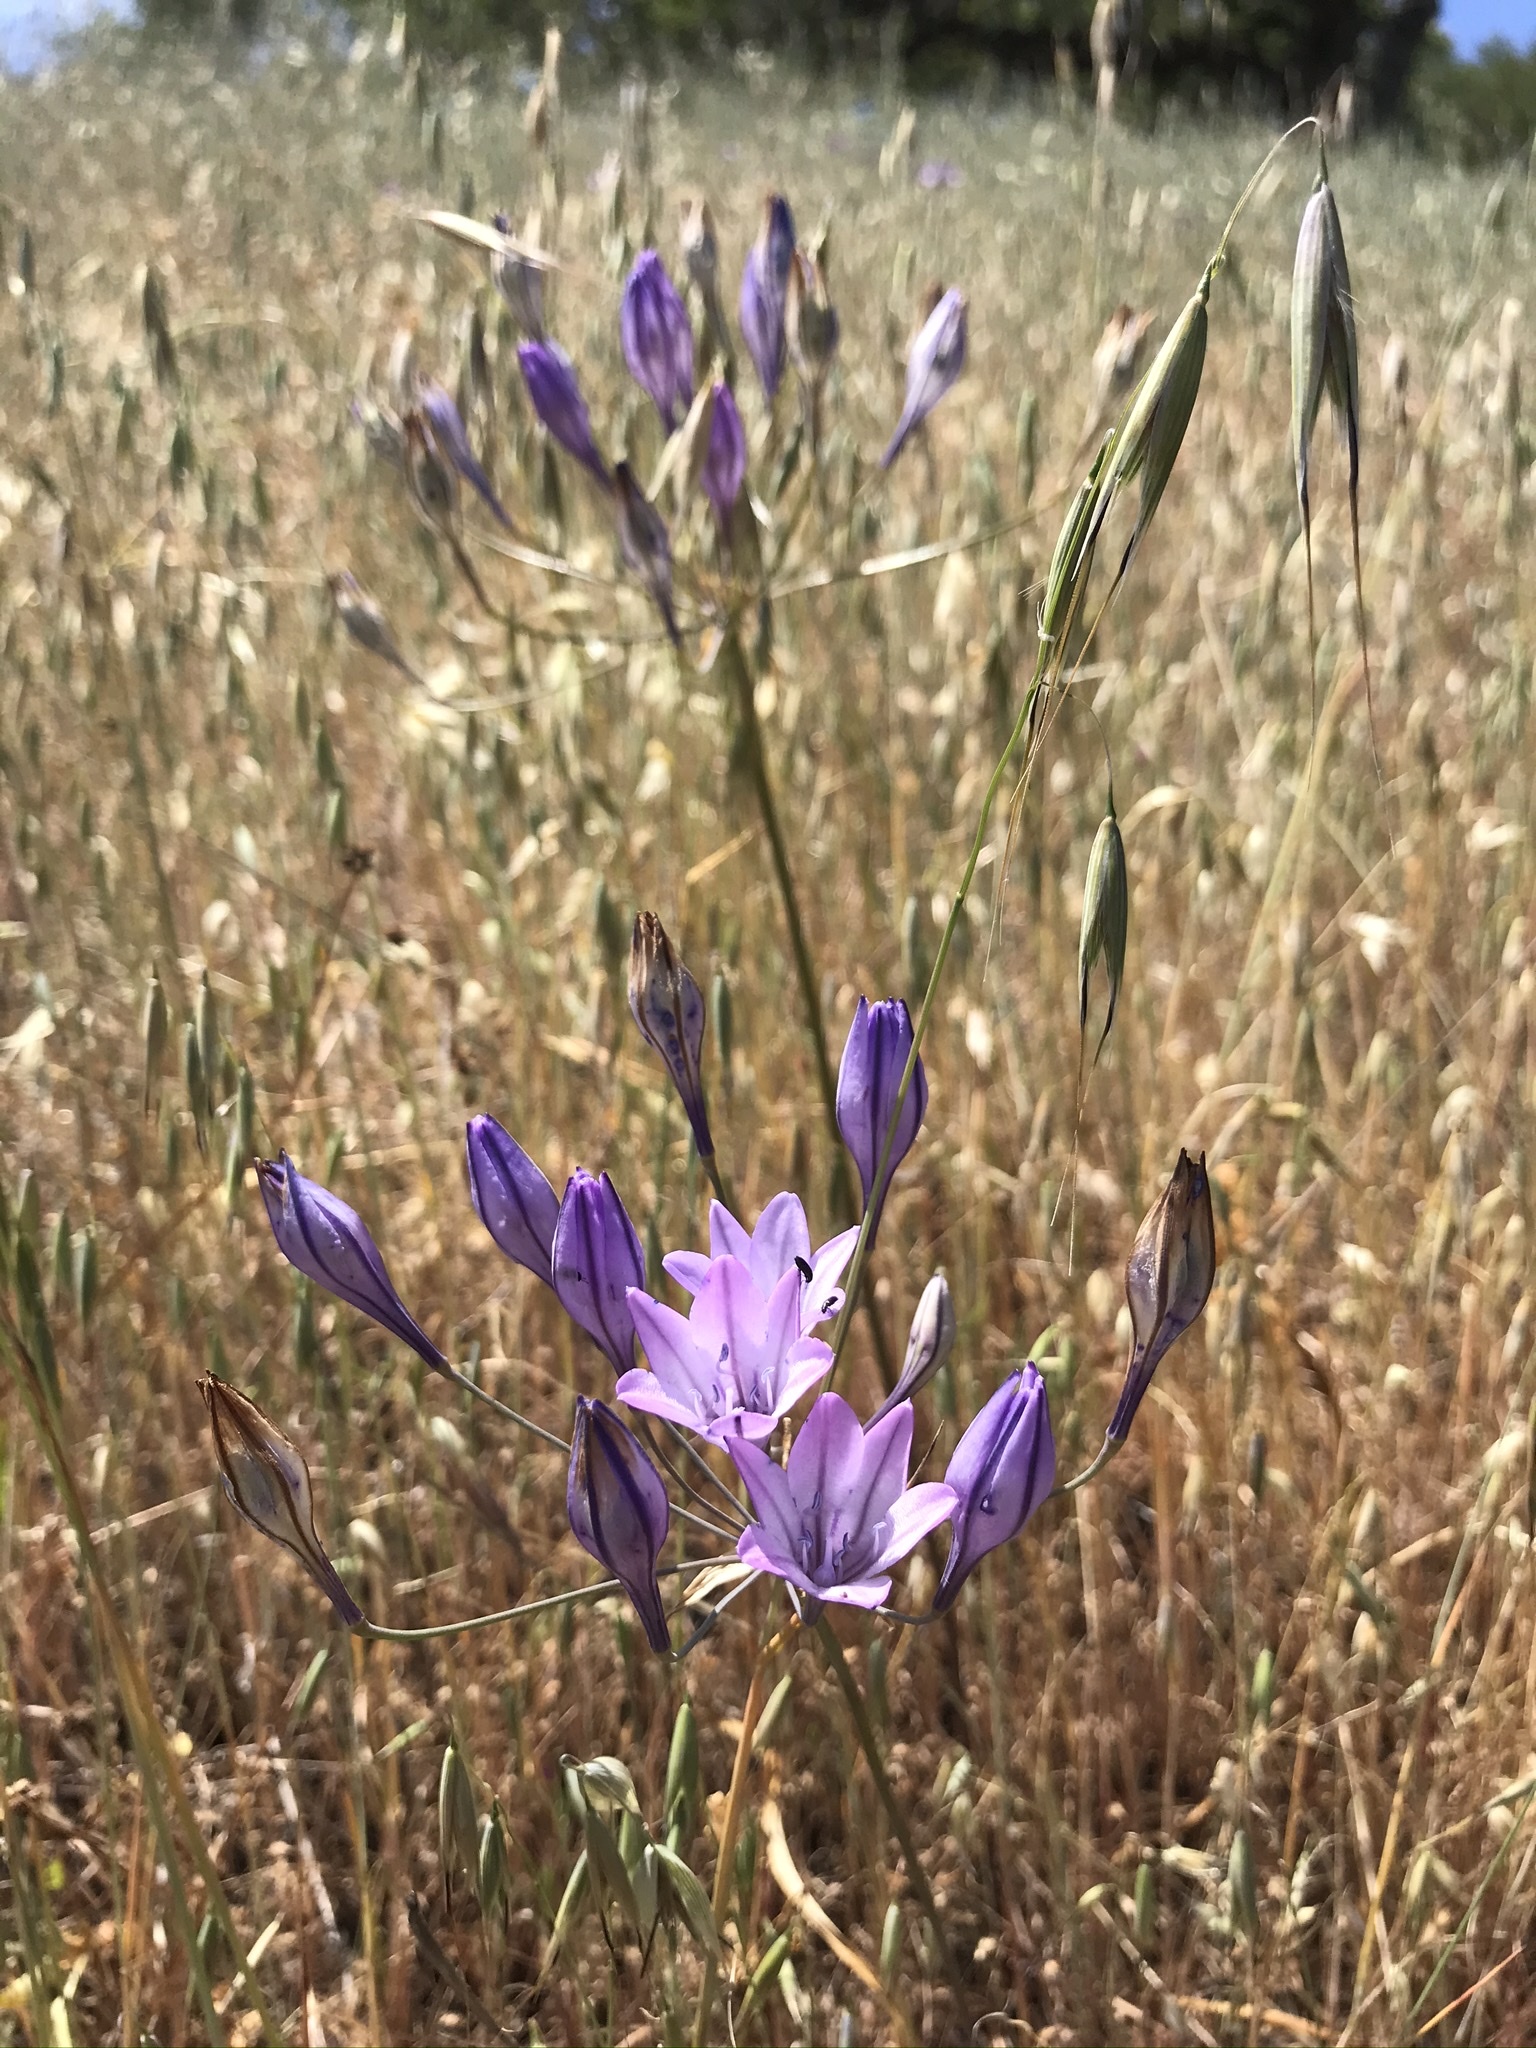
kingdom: Plantae
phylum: Tracheophyta
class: Liliopsida
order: Asparagales
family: Asparagaceae
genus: Triteleia
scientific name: Triteleia laxa
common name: Triplet-lily
